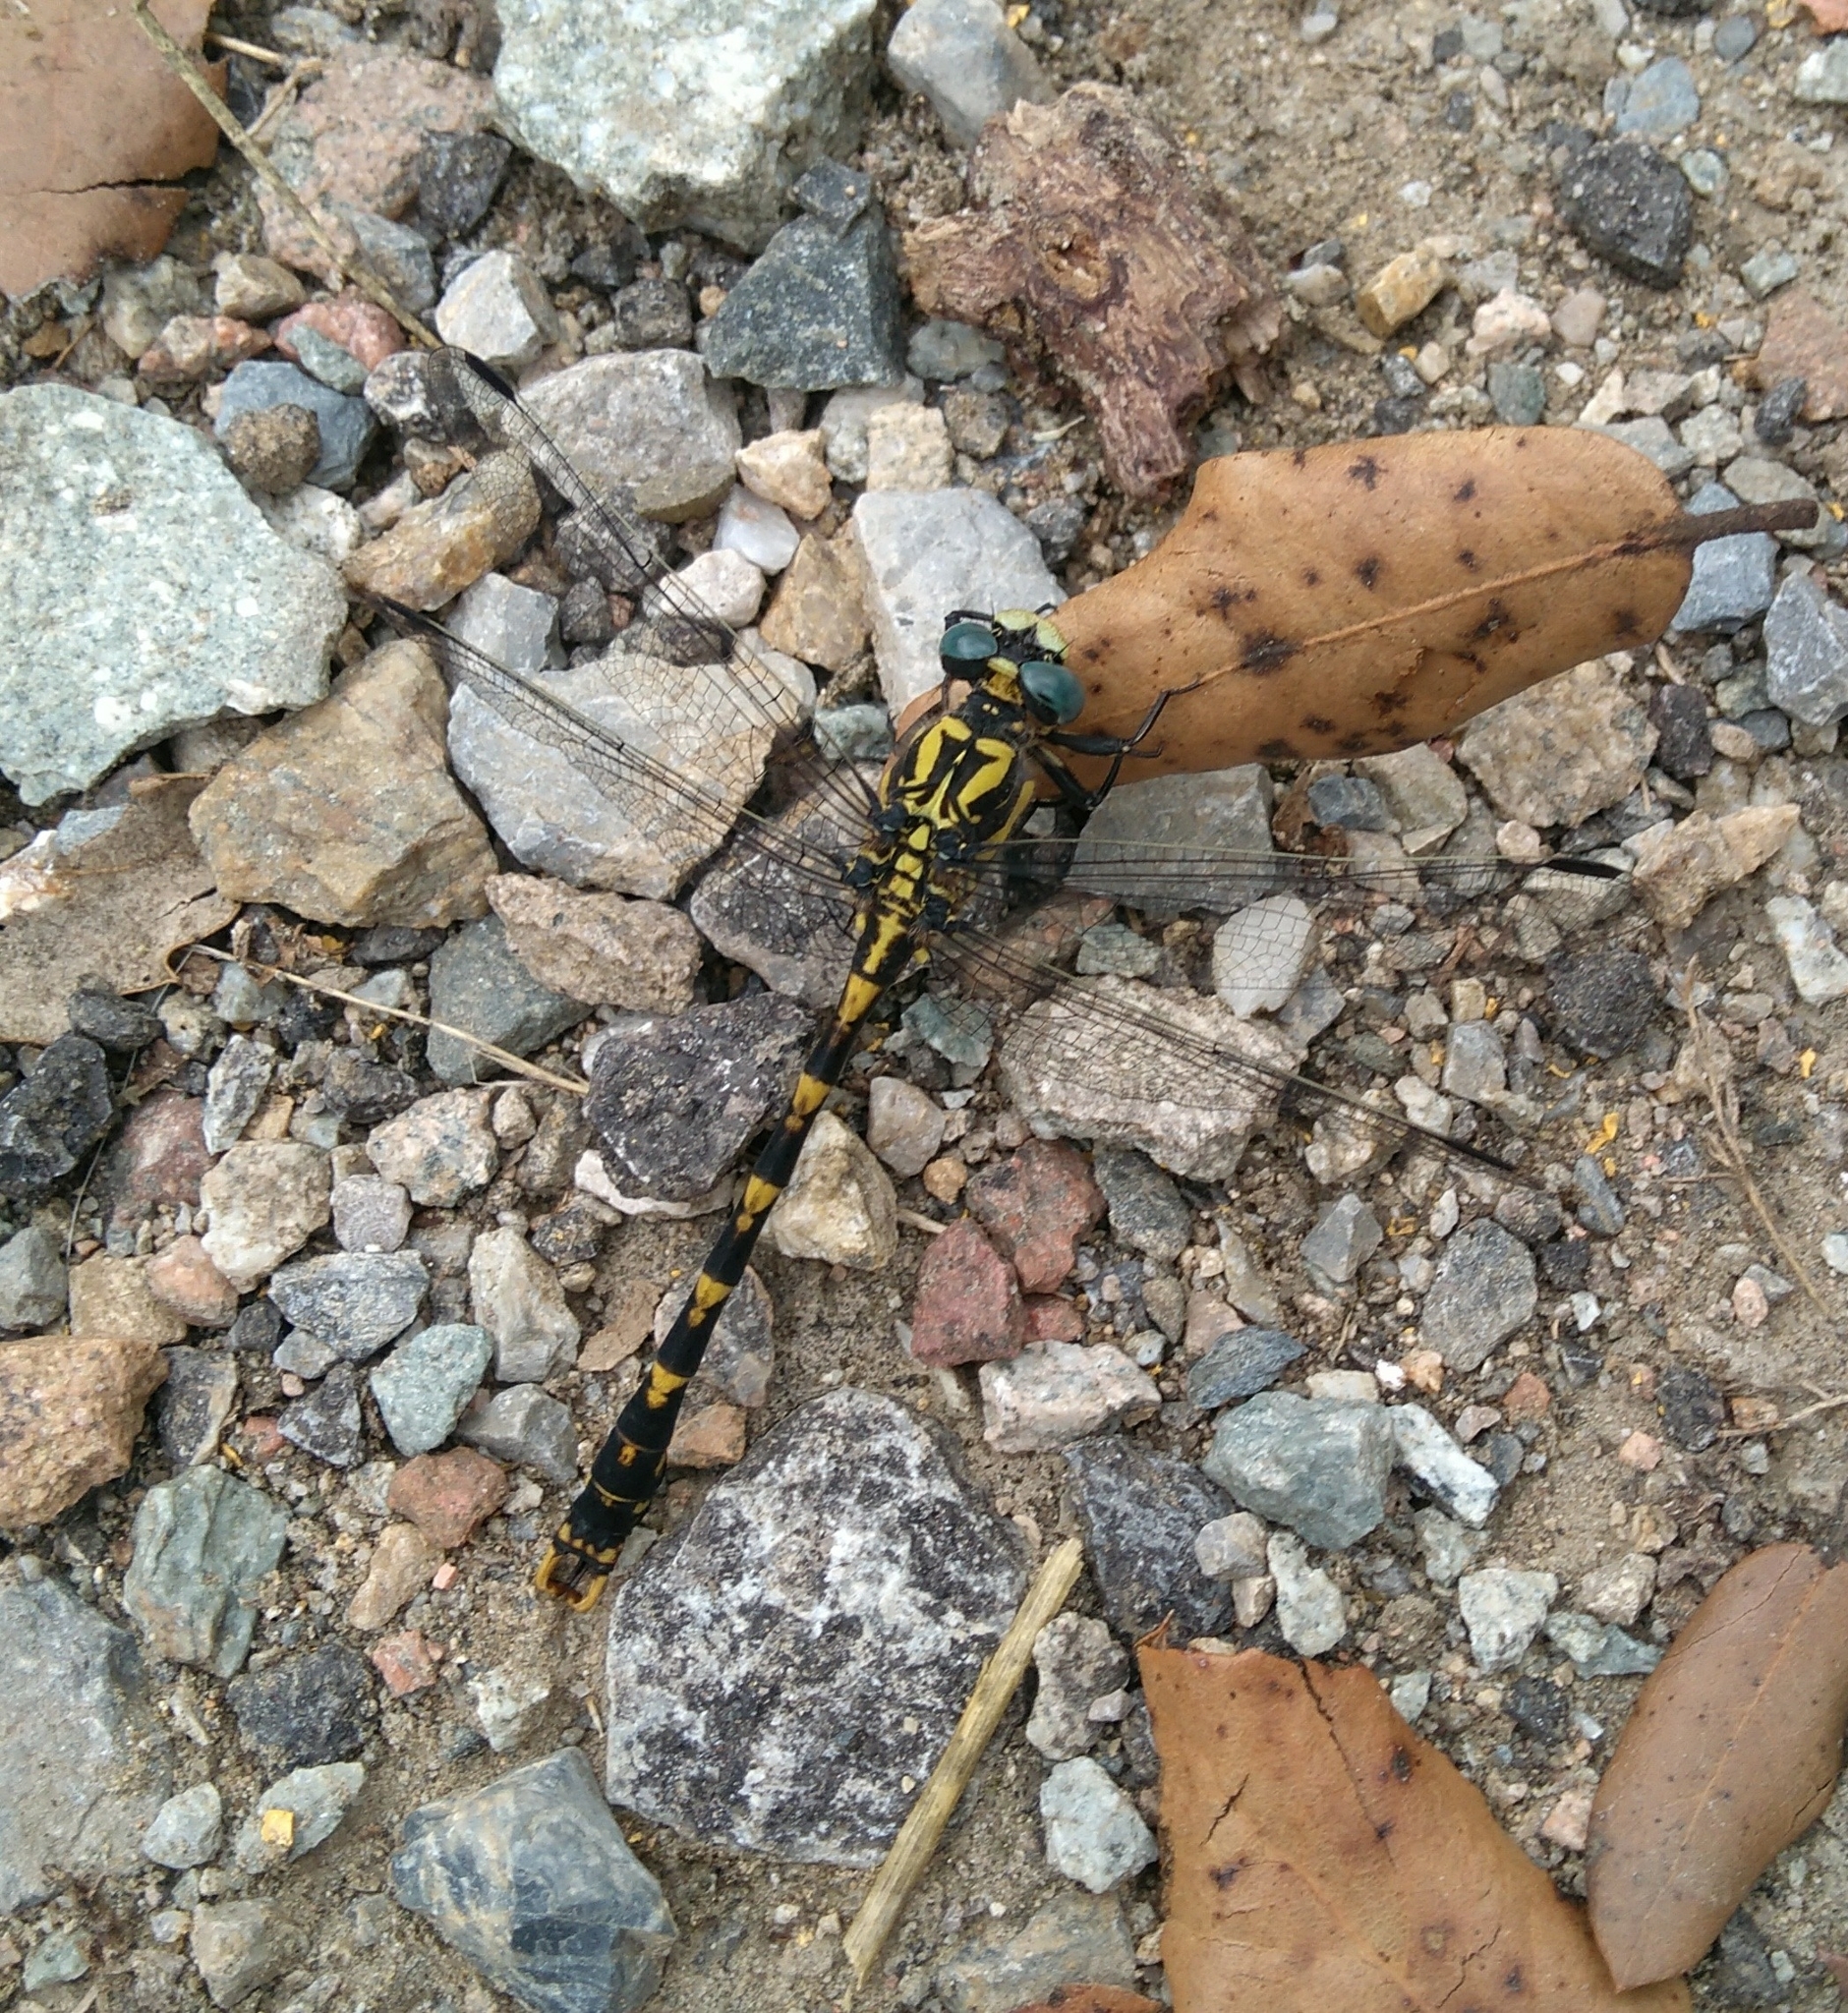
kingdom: Animalia
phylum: Arthropoda
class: Insecta
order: Odonata
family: Gomphidae
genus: Onychogomphus
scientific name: Onychogomphus uncatus
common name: Large pincertail
